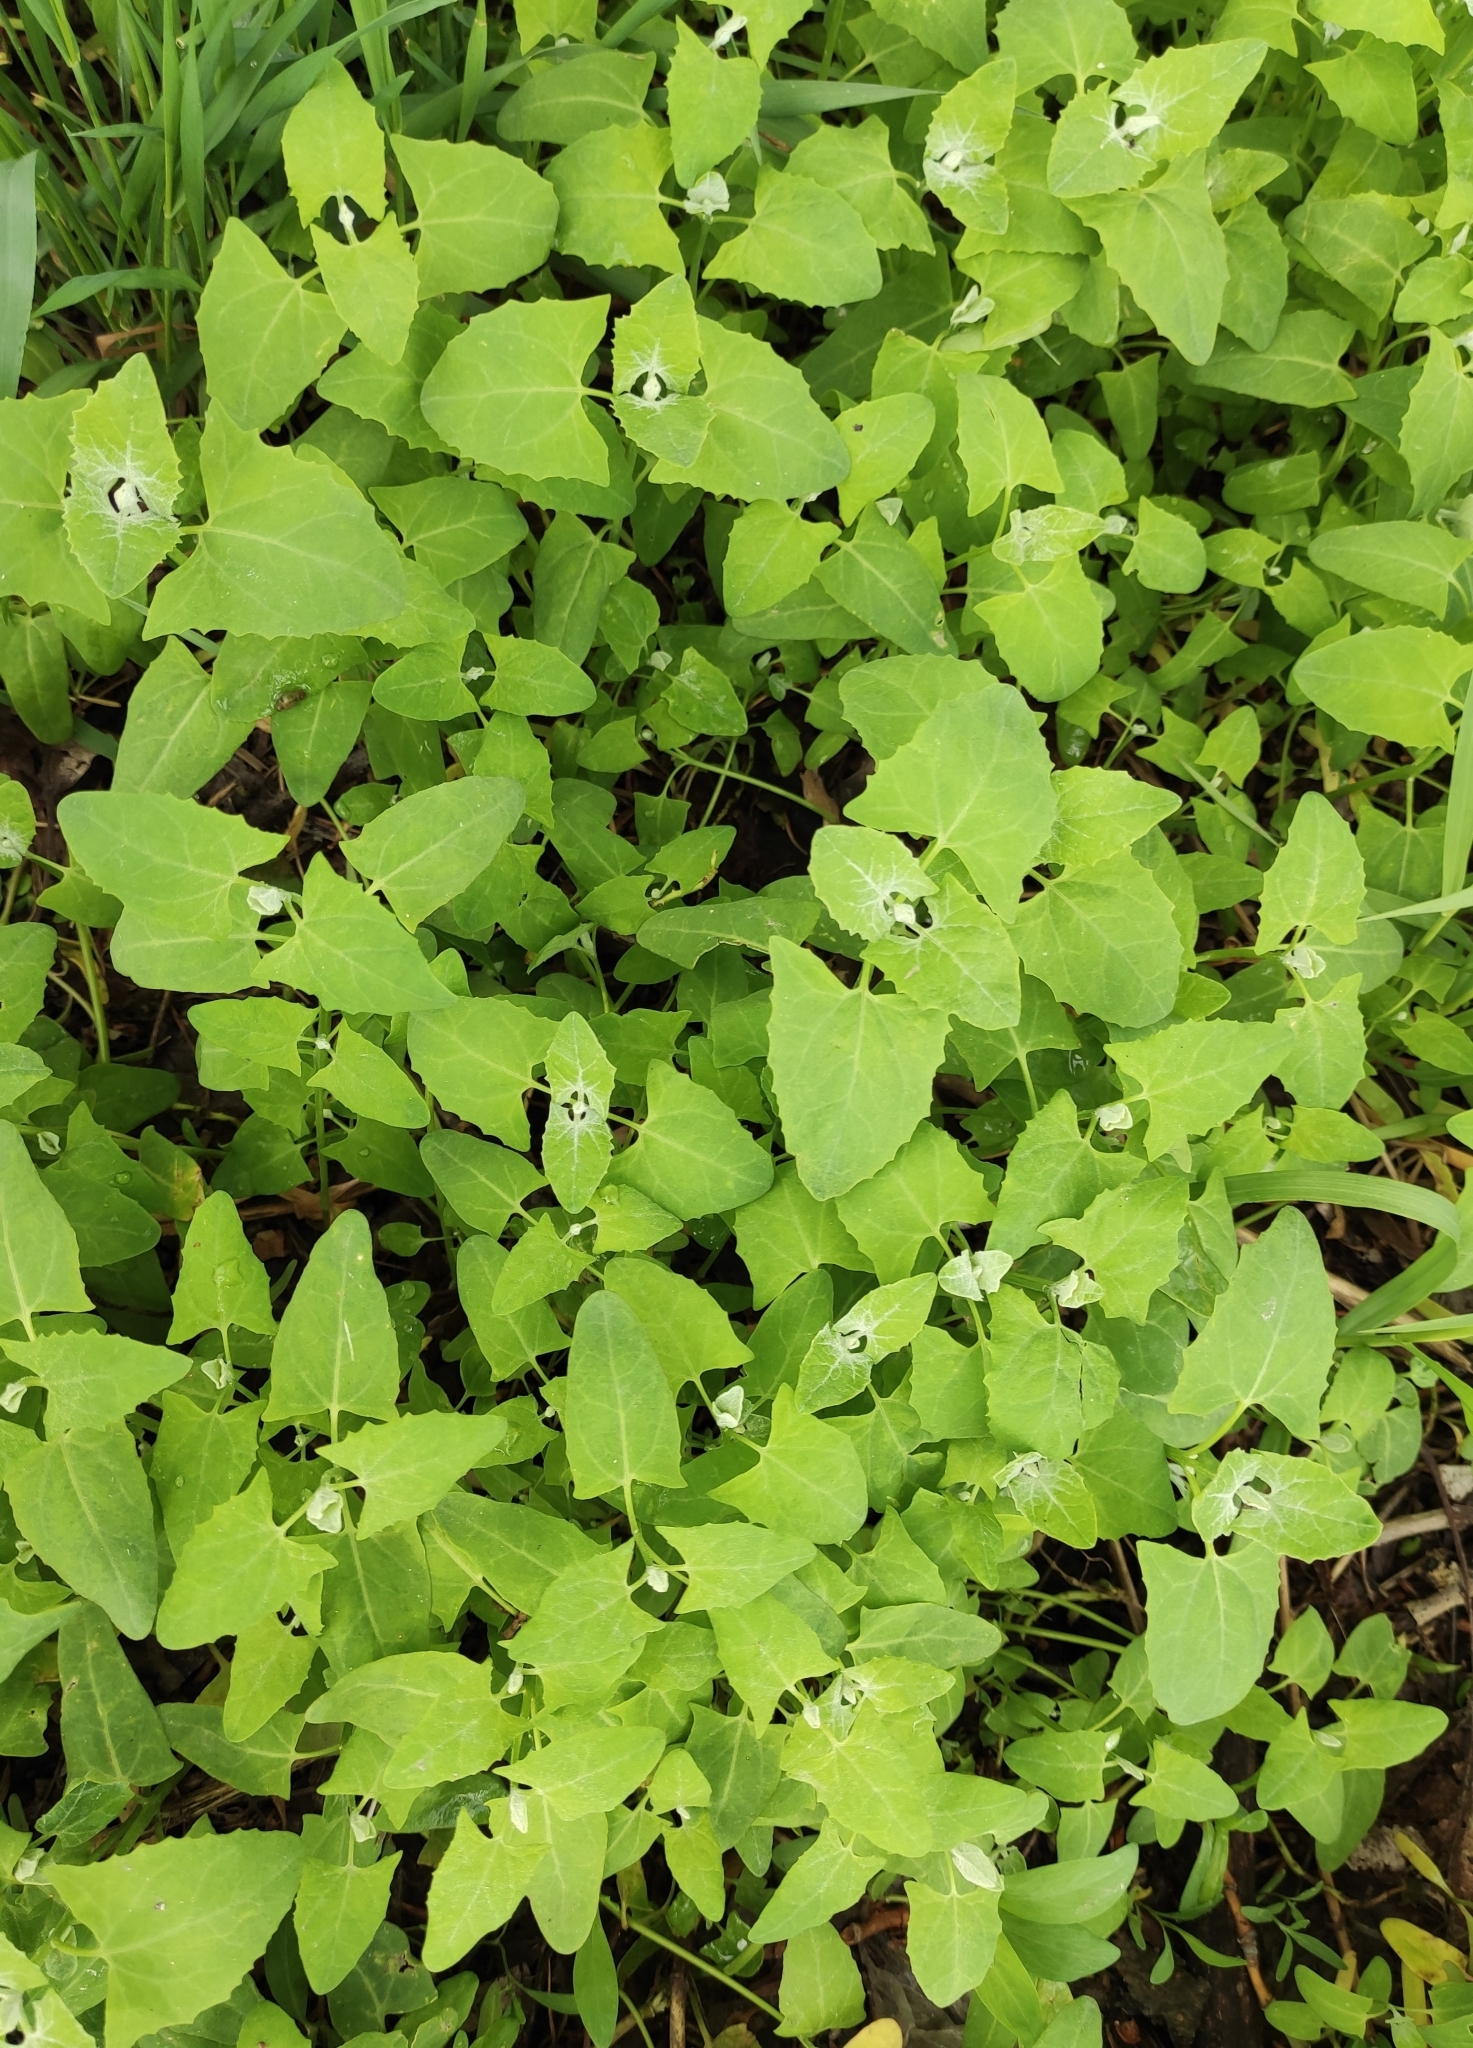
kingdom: Plantae
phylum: Tracheophyta
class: Magnoliopsida
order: Caryophyllales
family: Amaranthaceae
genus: Atriplex
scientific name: Atriplex sagittata
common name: Purple orache
